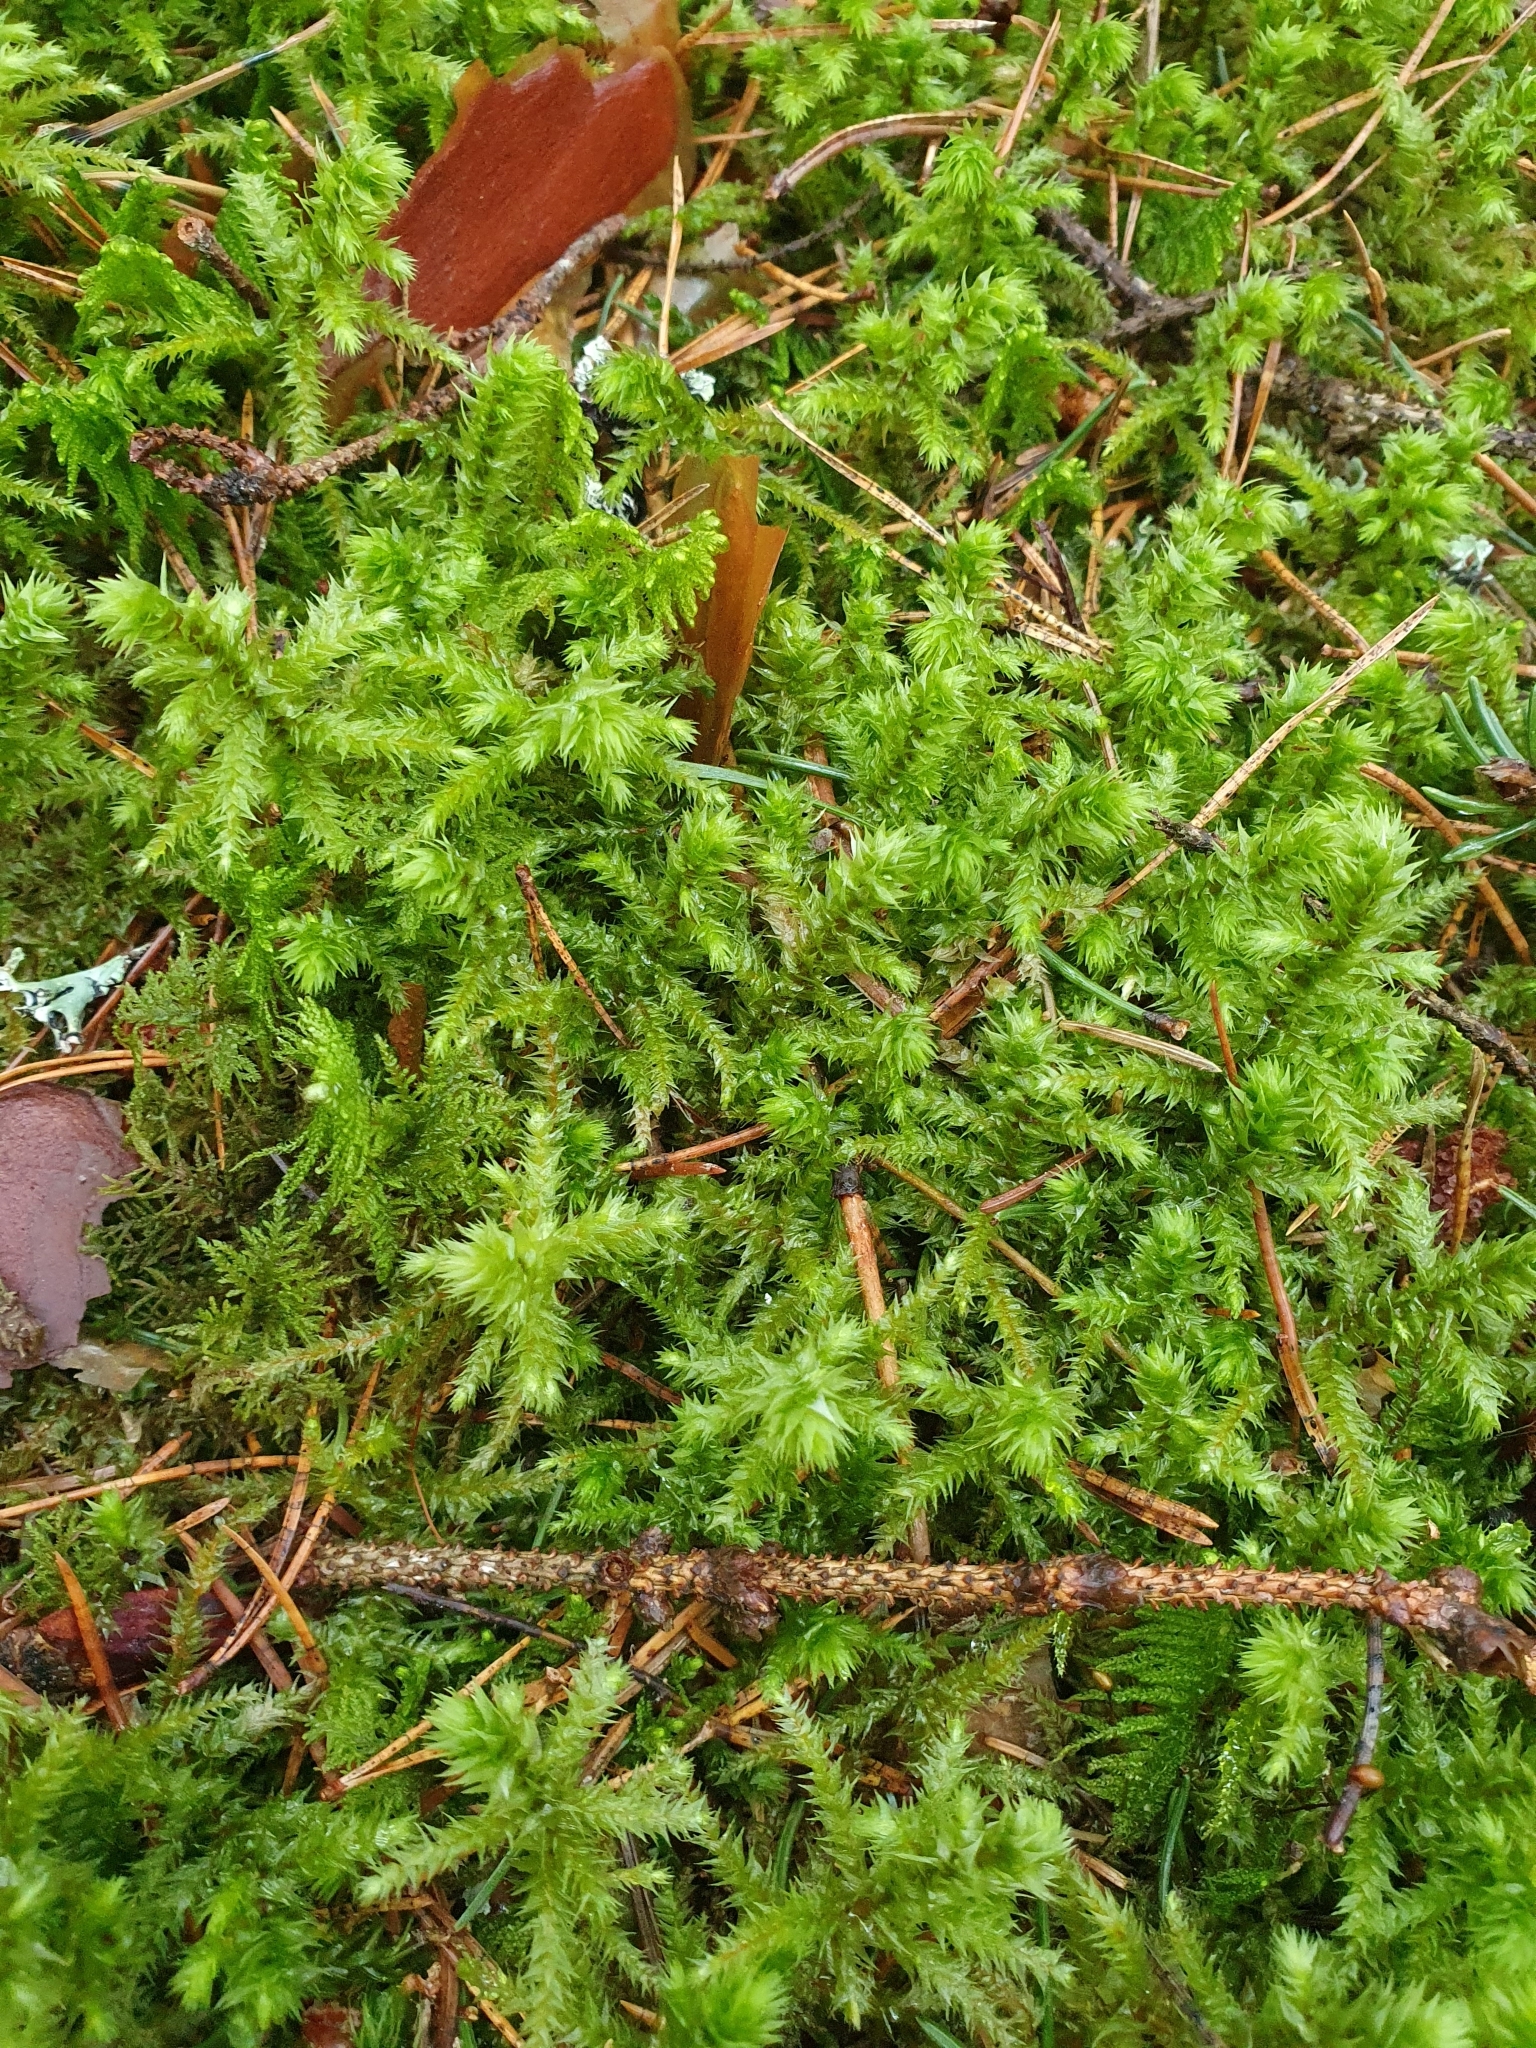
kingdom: Plantae
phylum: Bryophyta
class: Bryopsida
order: Hypnales
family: Hylocomiaceae
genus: Hylocomiadelphus
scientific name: Hylocomiadelphus triquetrus
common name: Rough goose neck moss
